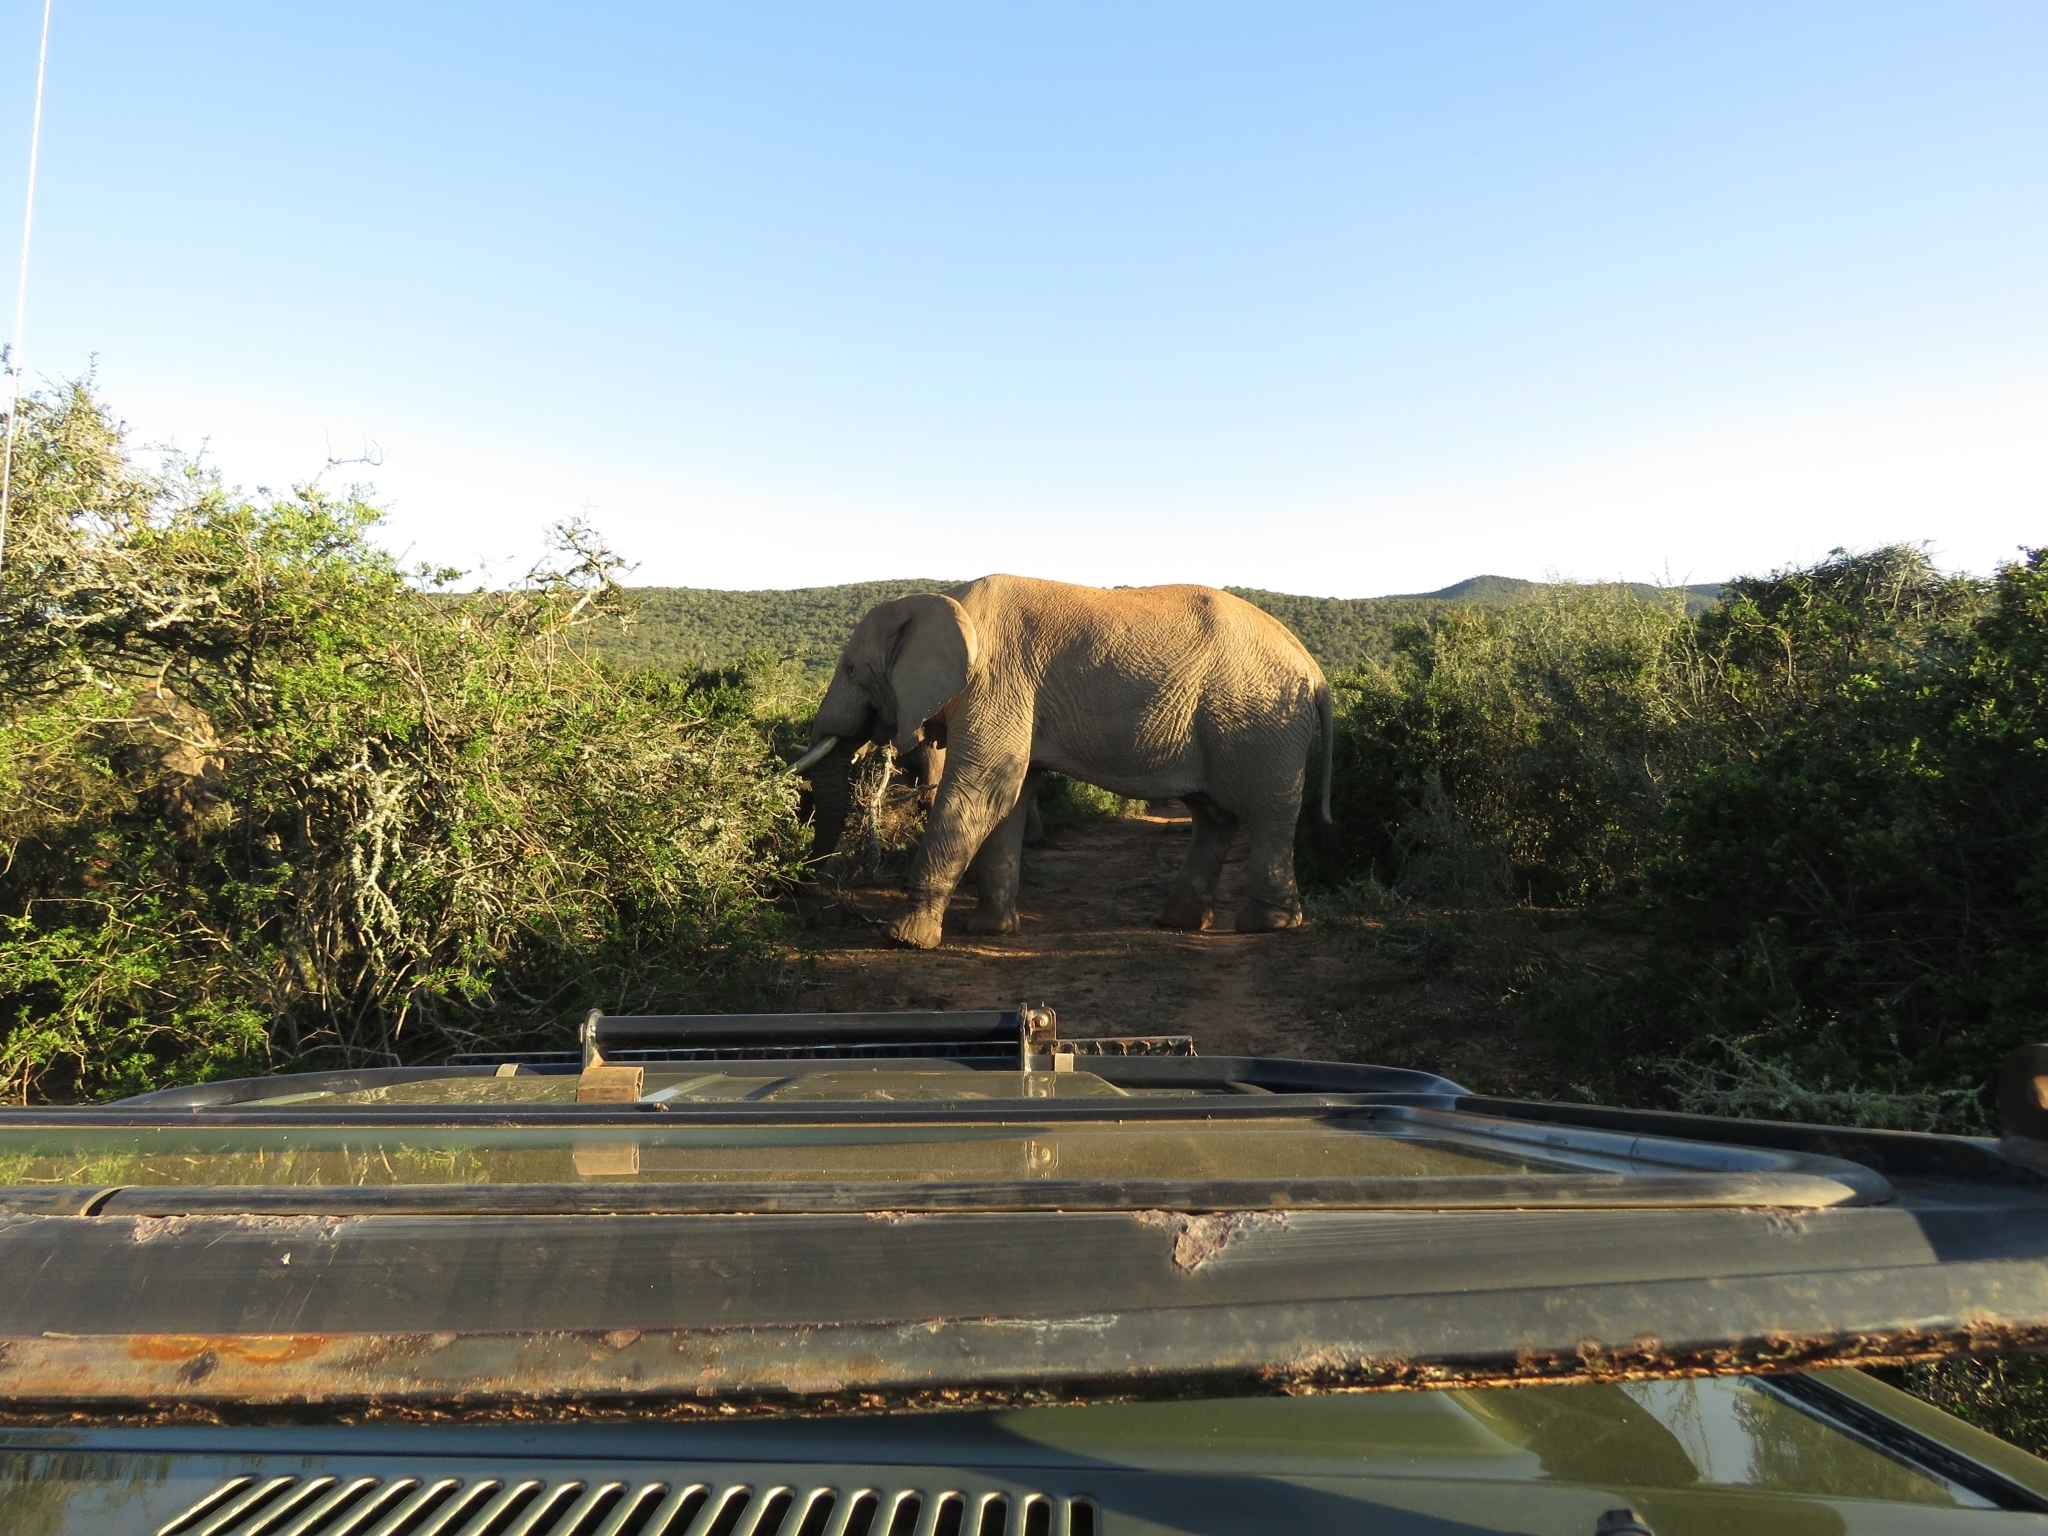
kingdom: Animalia
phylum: Chordata
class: Mammalia
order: Proboscidea
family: Elephantidae
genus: Loxodonta
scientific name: Loxodonta africana
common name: African elephant
